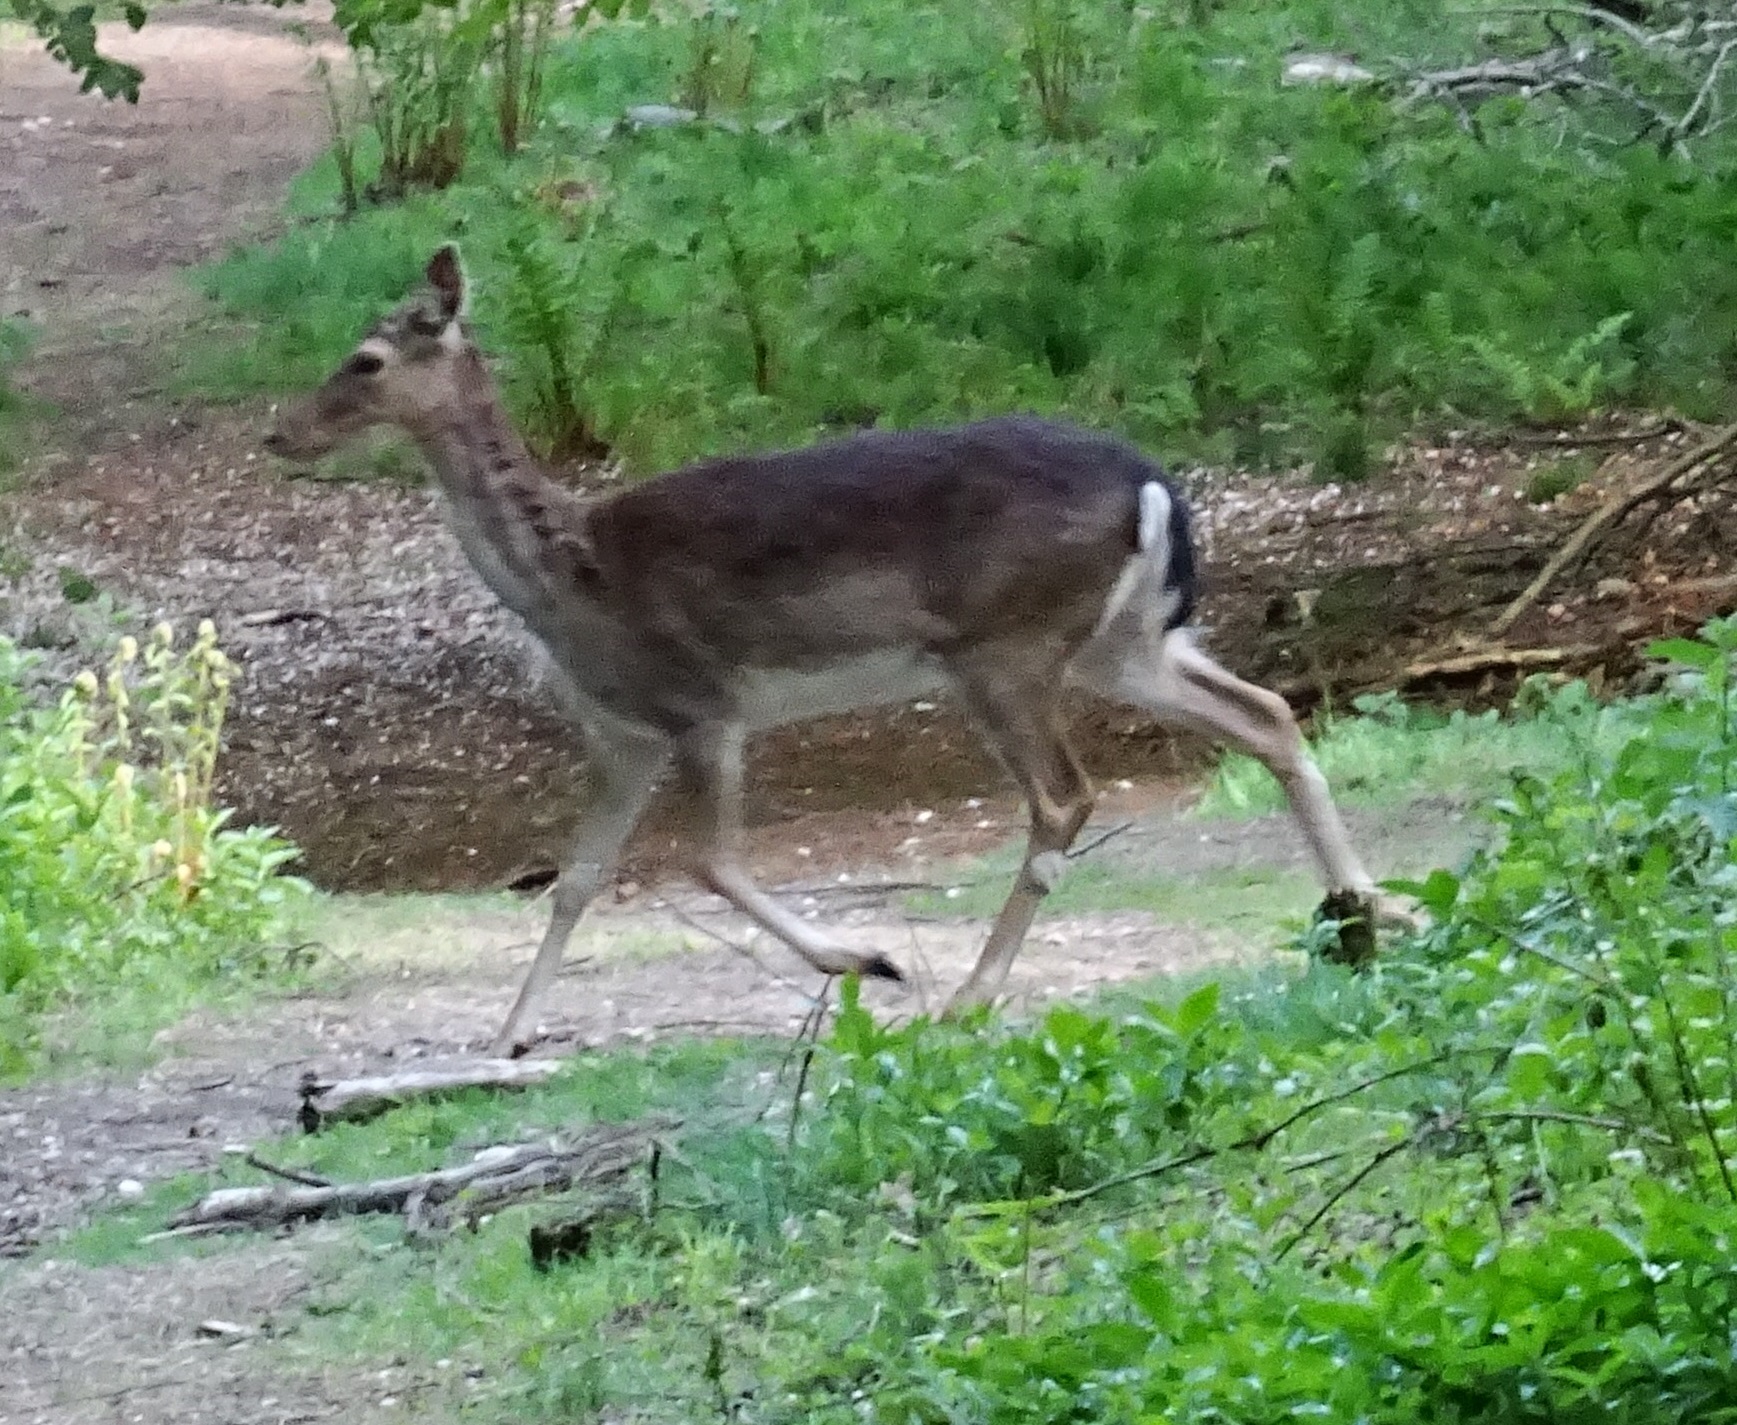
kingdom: Animalia
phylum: Chordata
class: Mammalia
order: Artiodactyla
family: Cervidae
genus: Dama
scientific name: Dama dama
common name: Fallow deer
